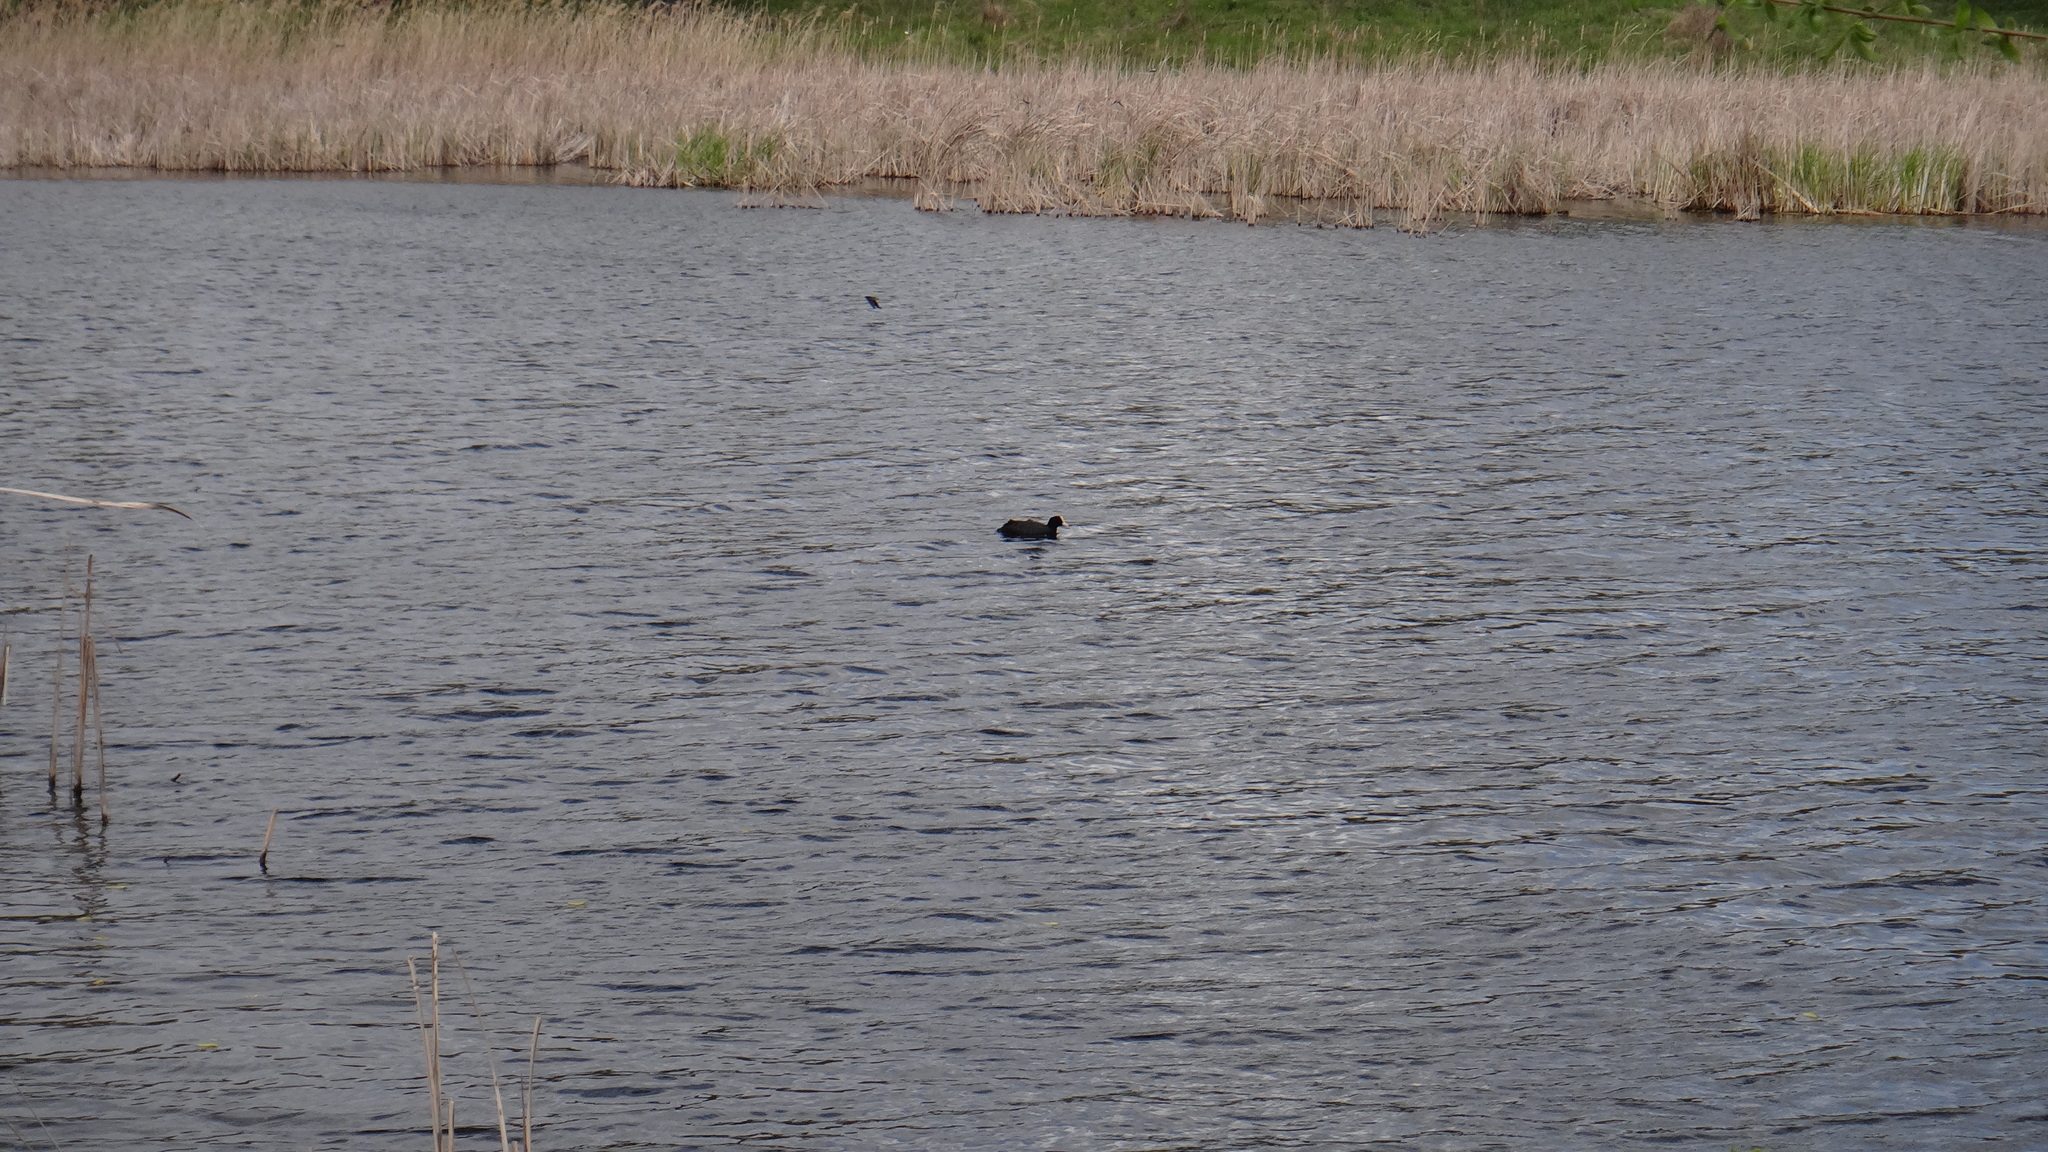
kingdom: Animalia
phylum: Chordata
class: Aves
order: Gruiformes
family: Rallidae
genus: Fulica
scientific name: Fulica atra
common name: Eurasian coot
